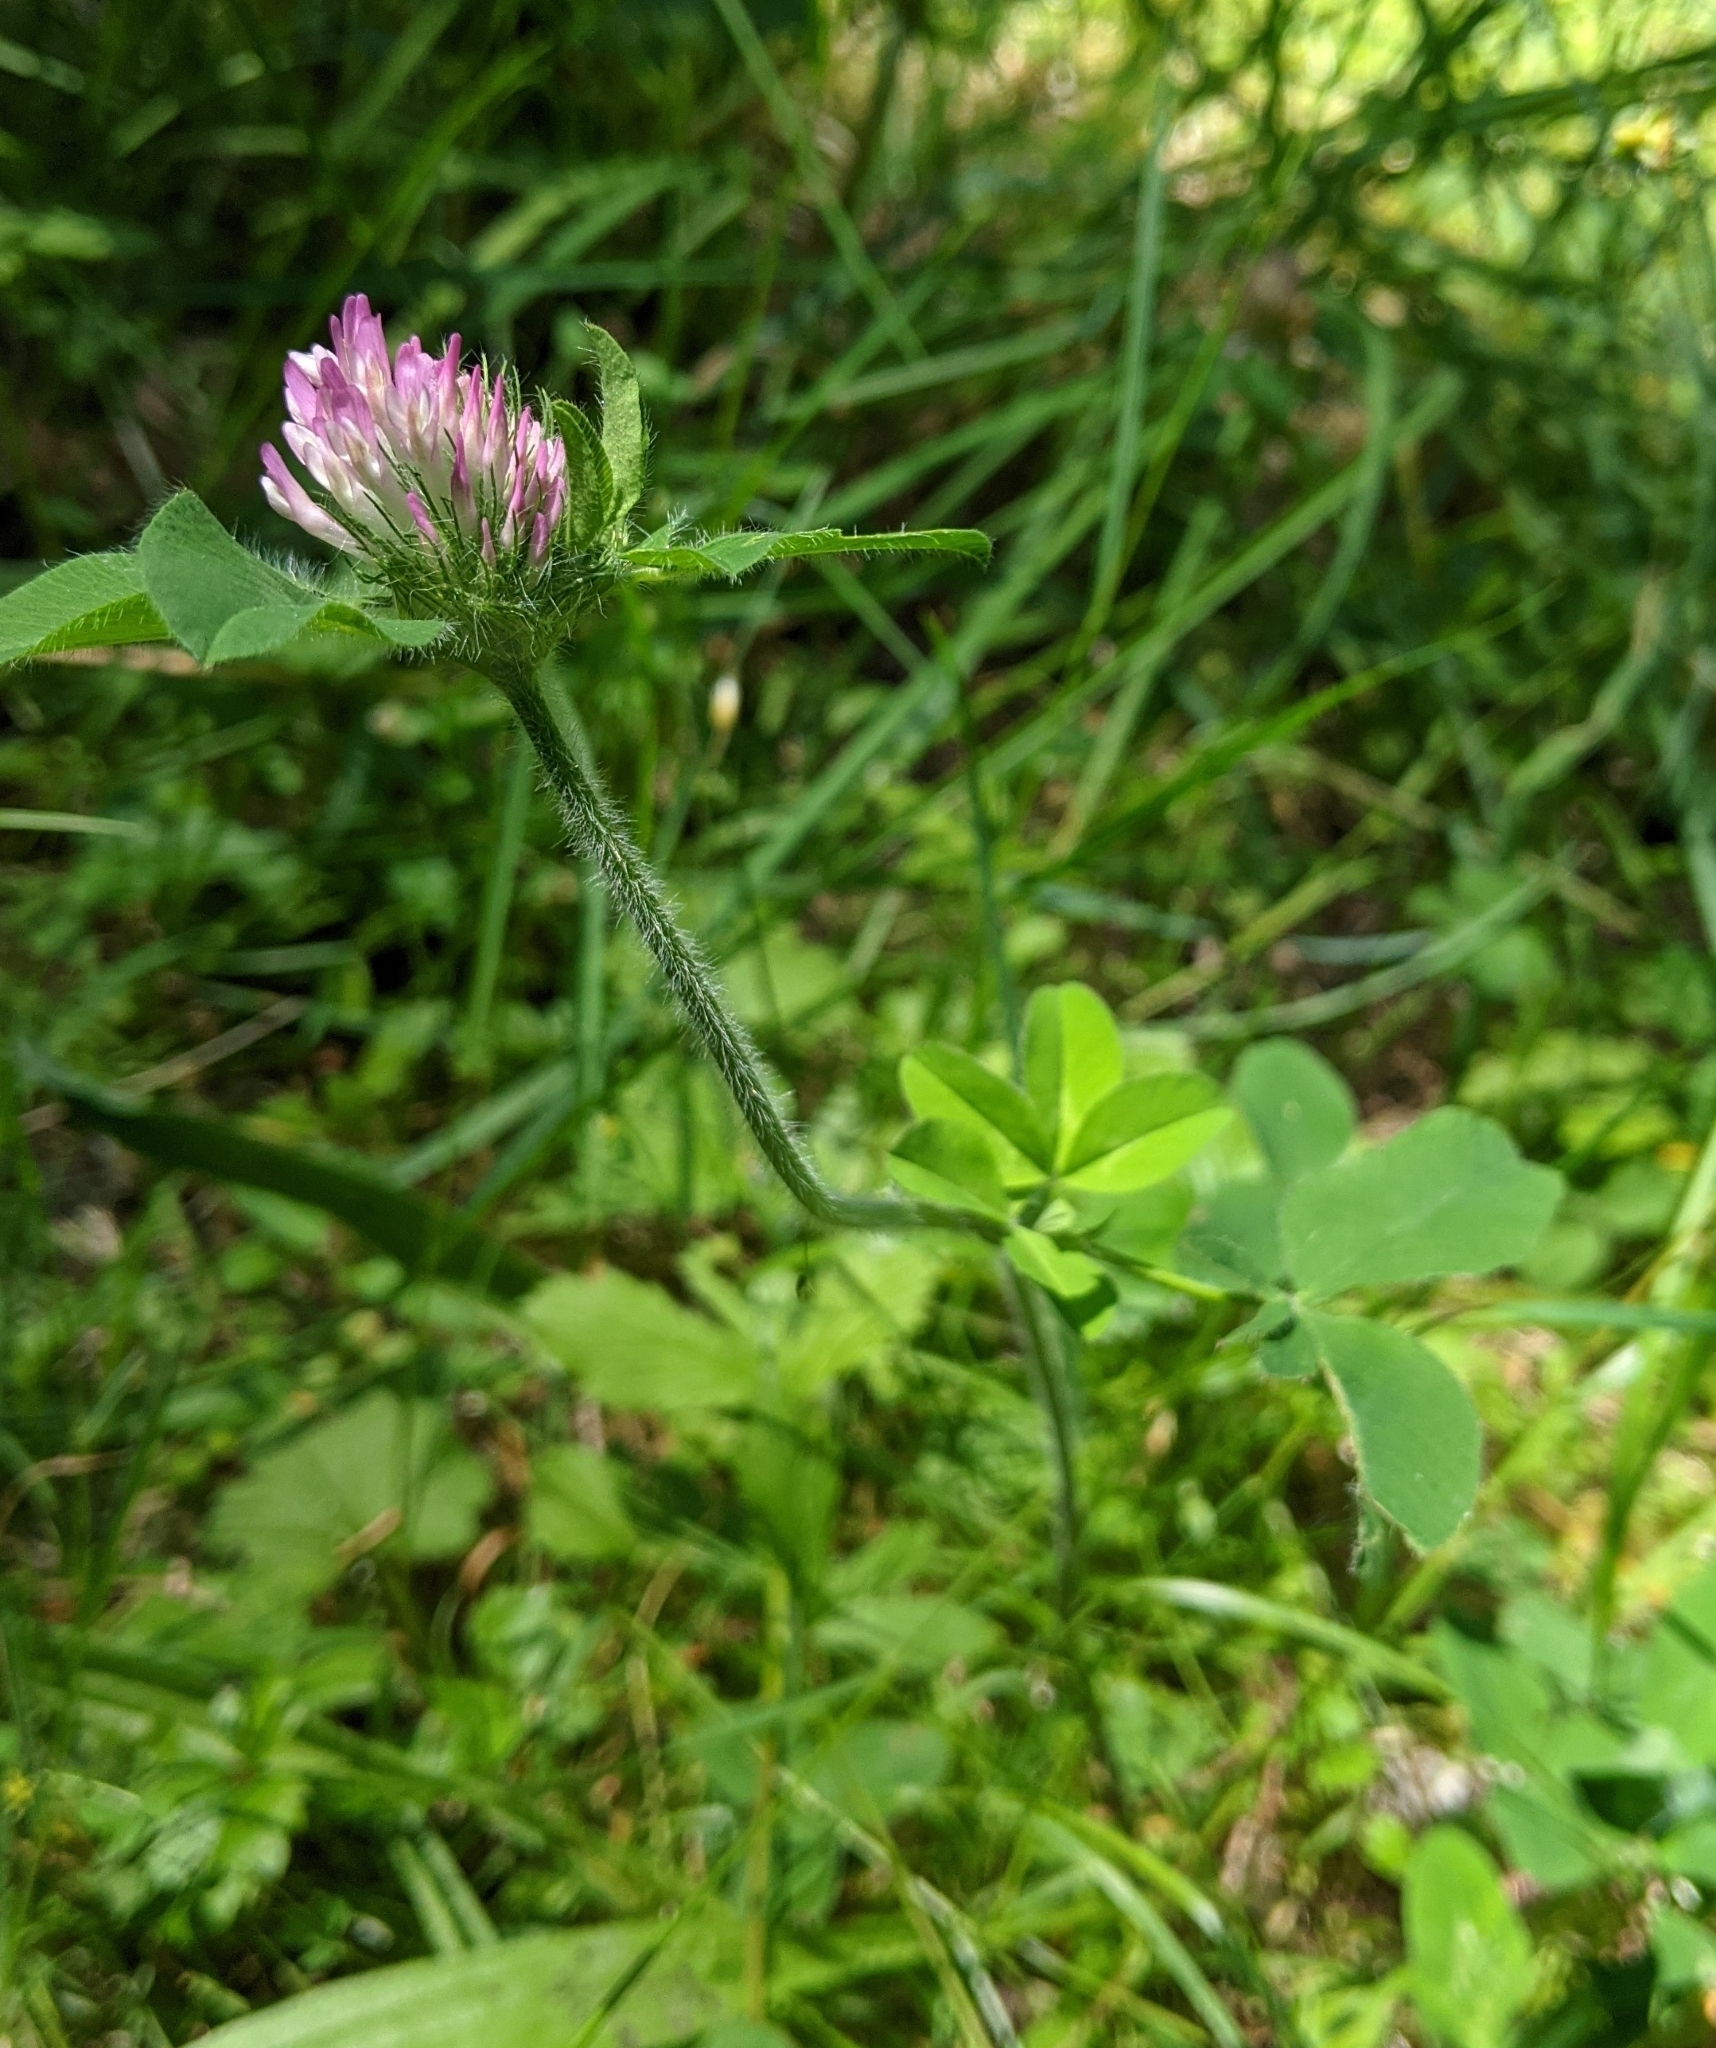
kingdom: Plantae
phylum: Tracheophyta
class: Magnoliopsida
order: Fabales
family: Fabaceae
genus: Trifolium
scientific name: Trifolium pratense
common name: Red clover
